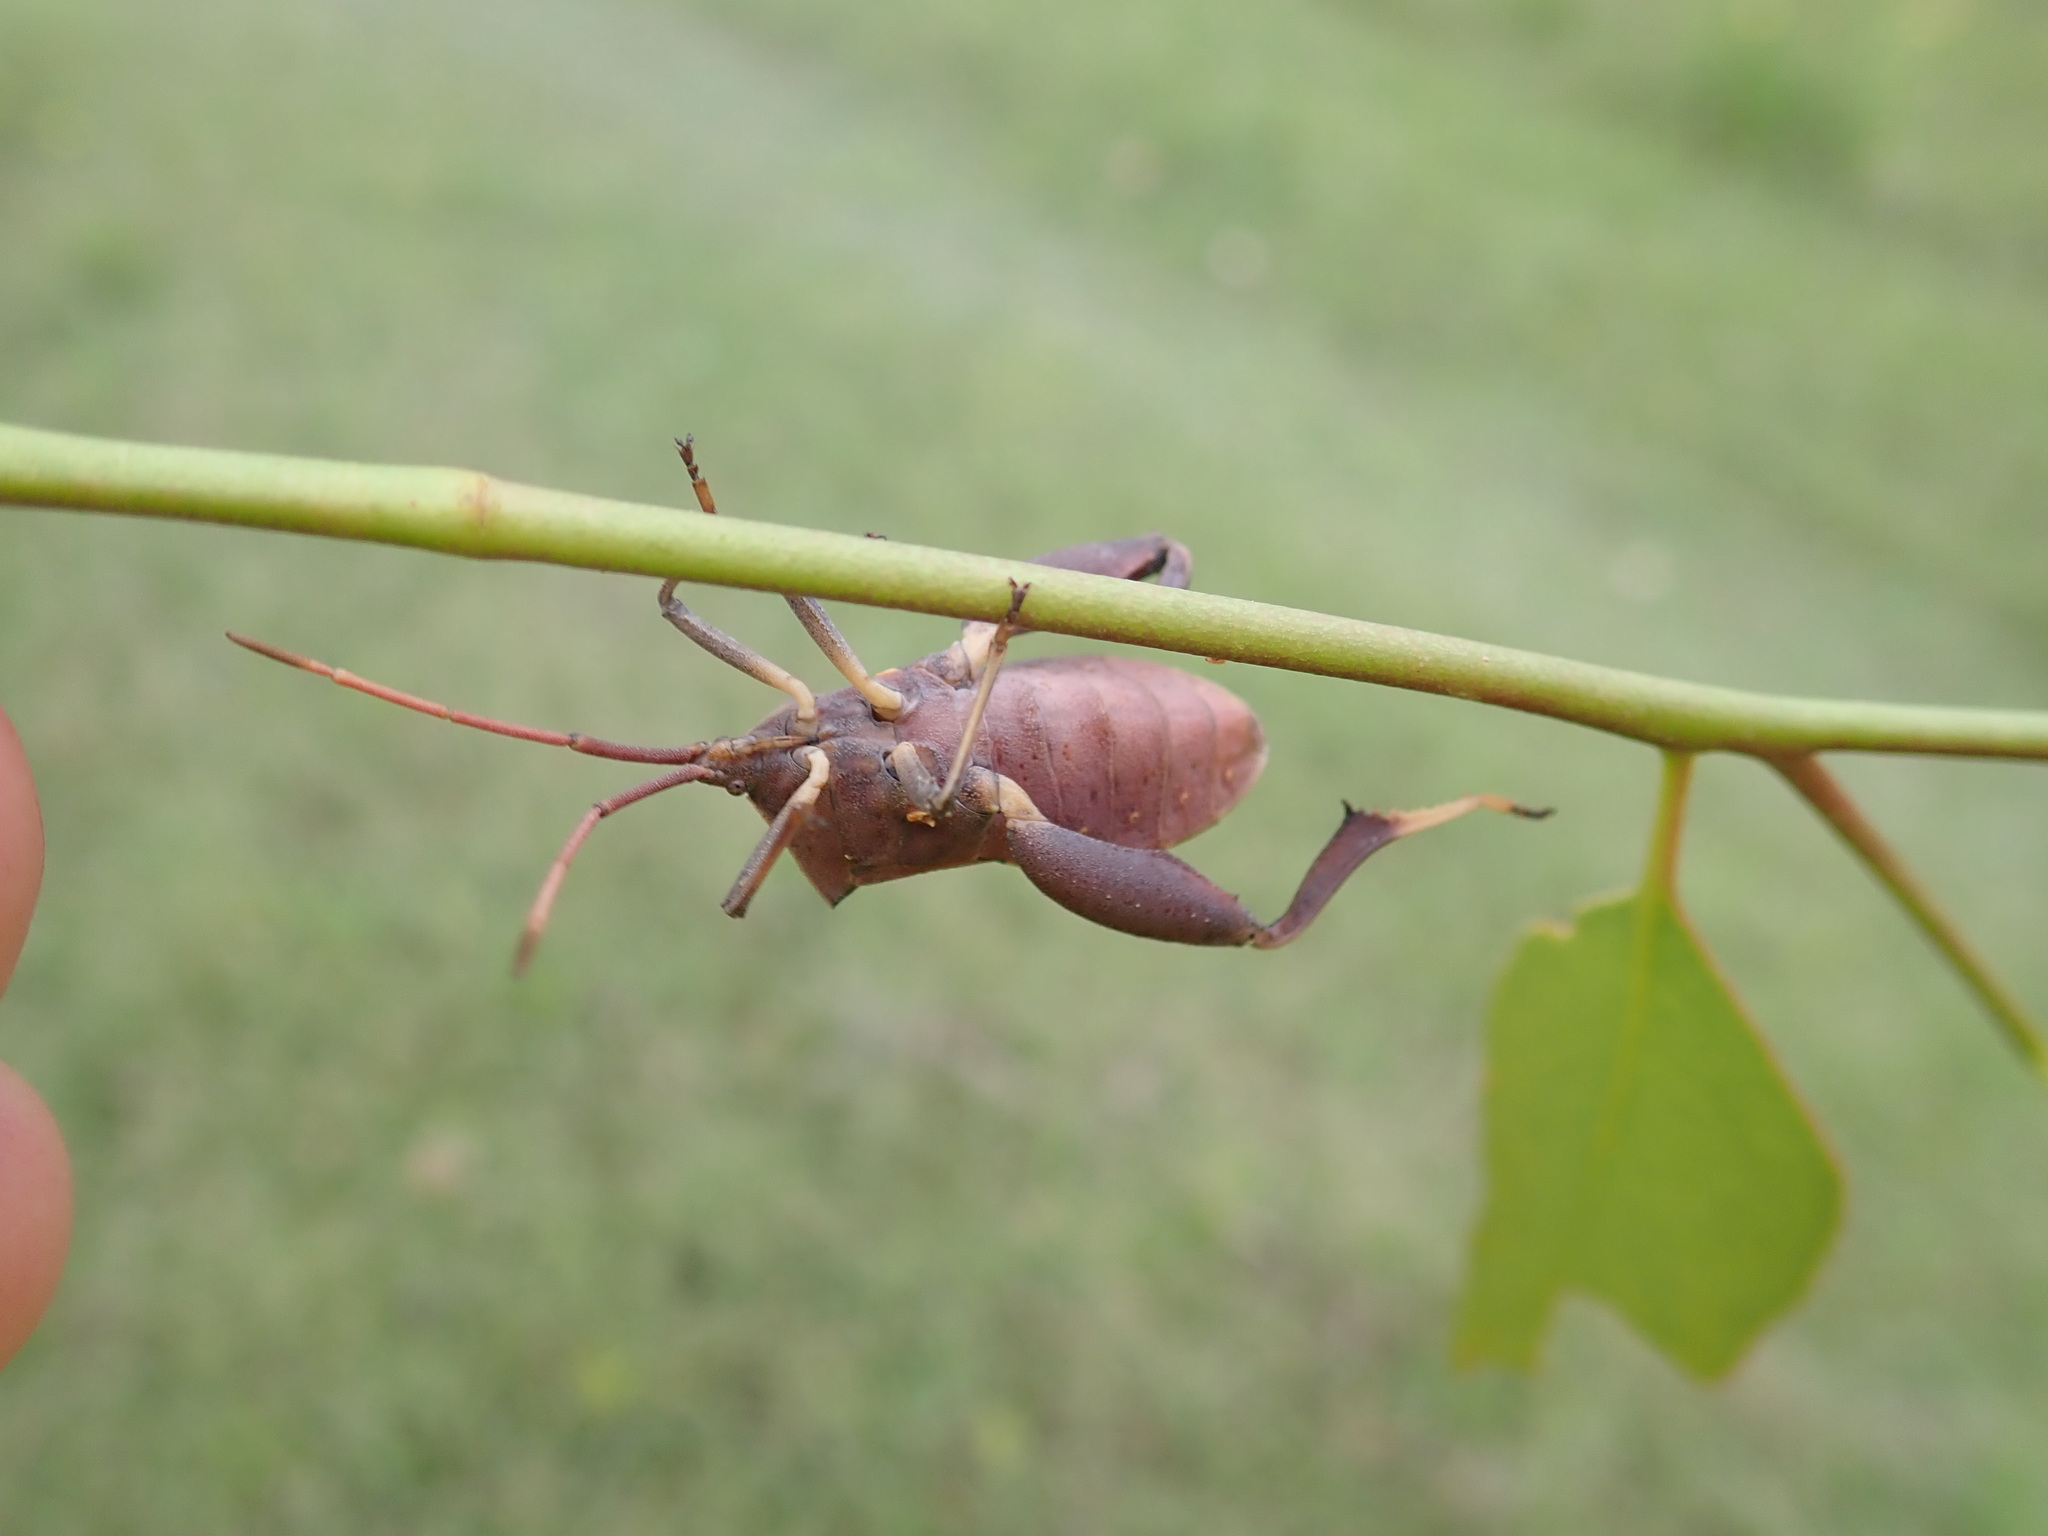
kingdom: Animalia
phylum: Arthropoda
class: Insecta
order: Hemiptera
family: Coreidae
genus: Amorbus
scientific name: Amorbus robustus
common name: Common gum-tree bug
